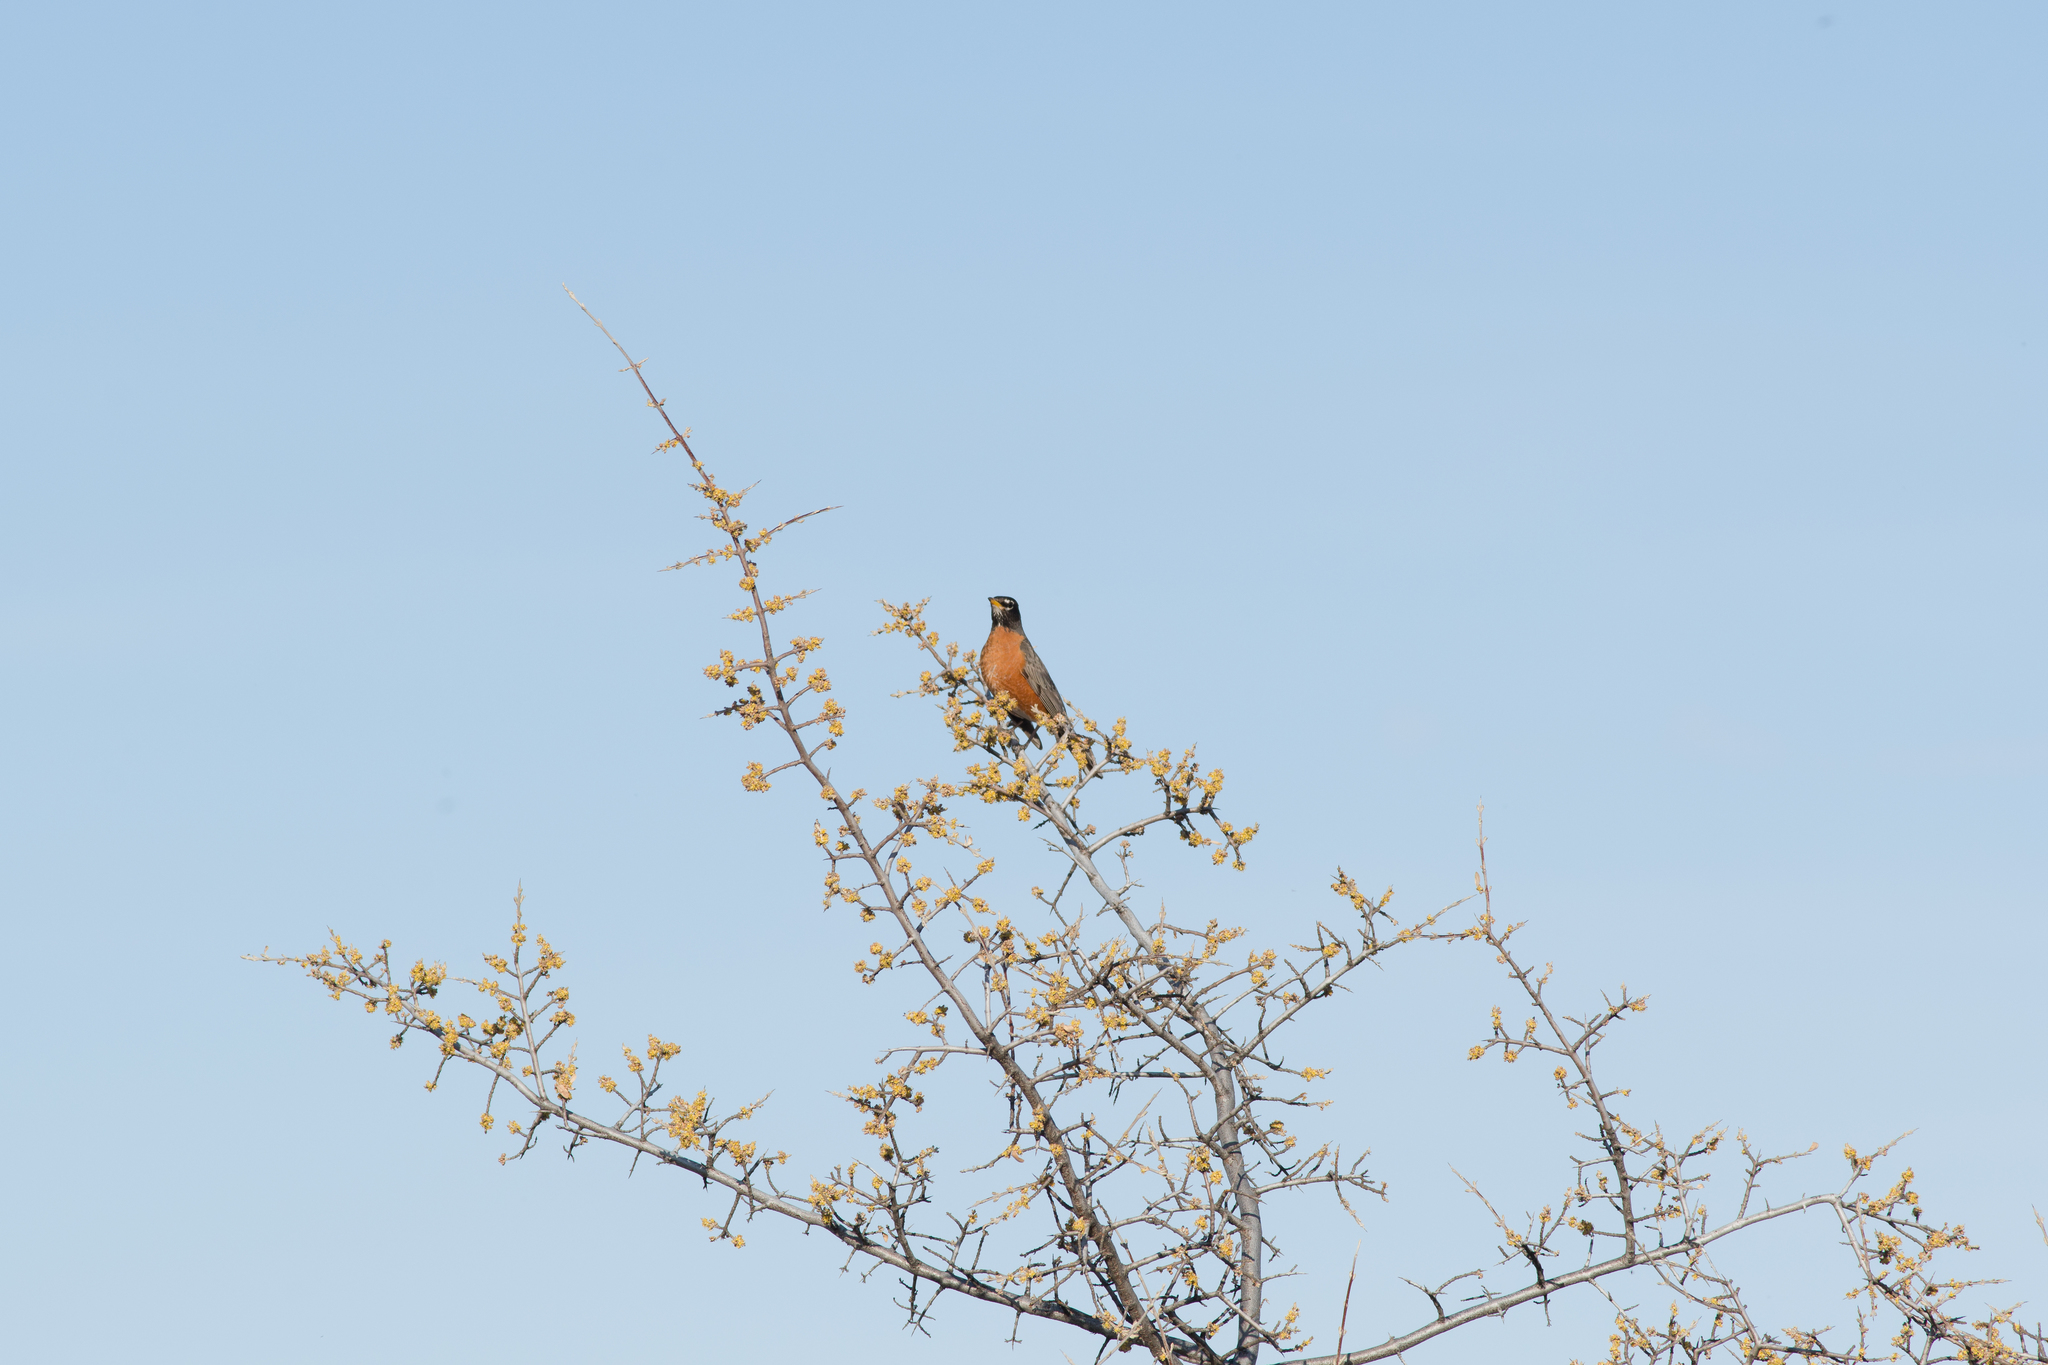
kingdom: Animalia
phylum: Chordata
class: Aves
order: Passeriformes
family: Turdidae
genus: Turdus
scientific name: Turdus migratorius
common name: American robin
